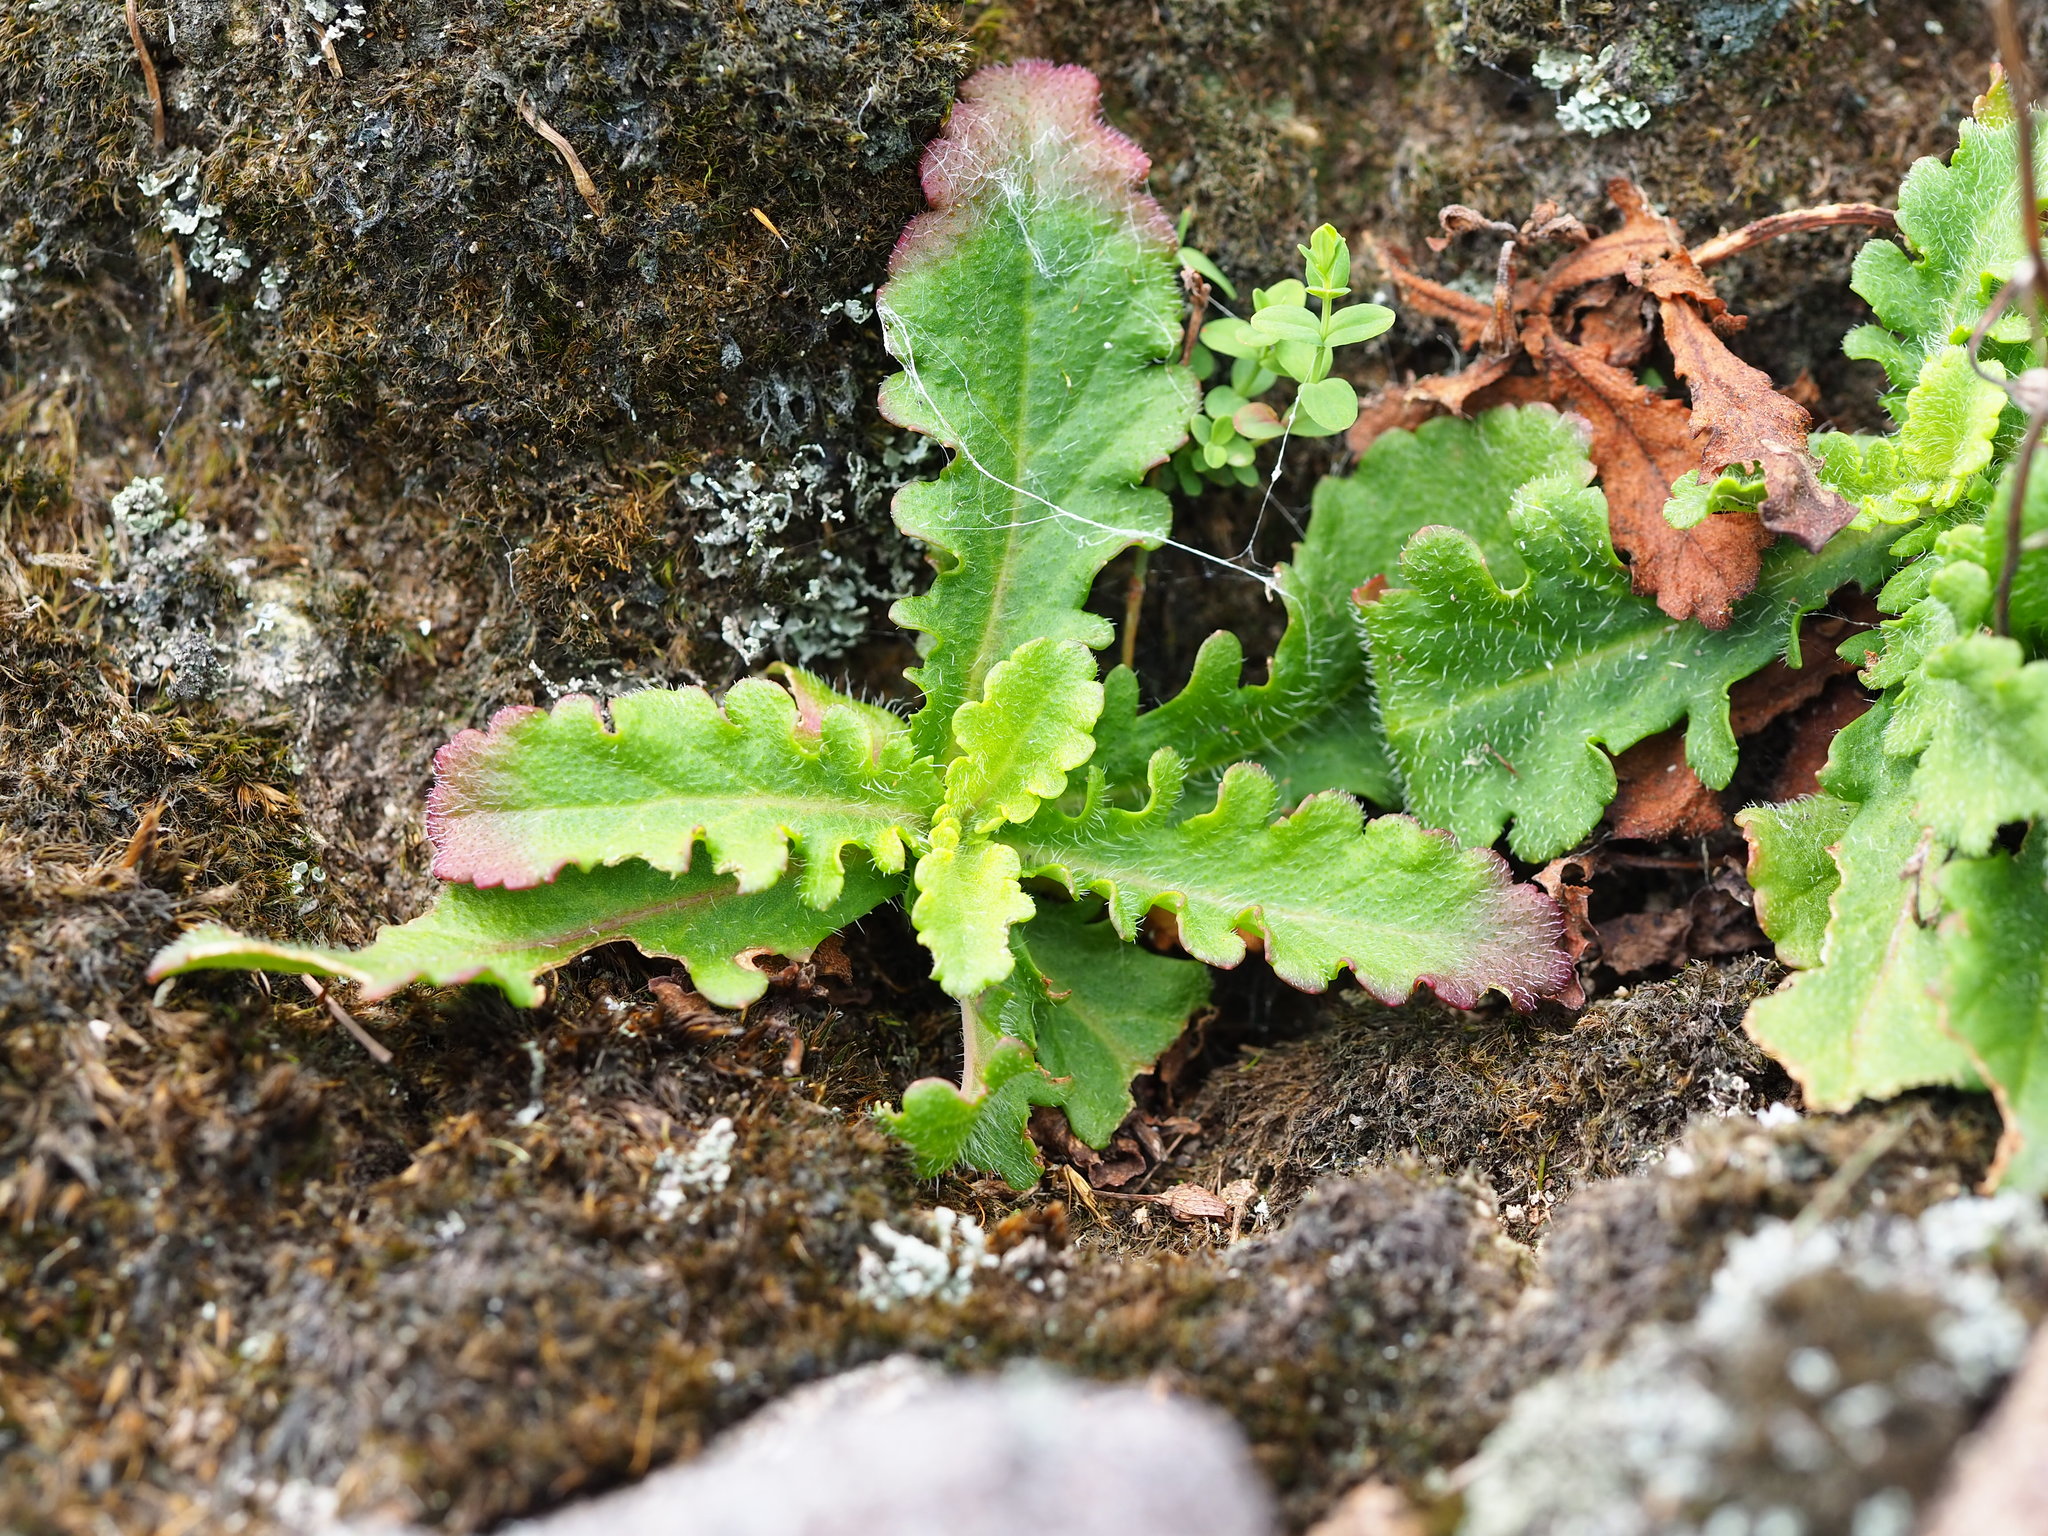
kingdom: Plantae
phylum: Tracheophyta
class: Magnoliopsida
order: Lamiales
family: Mazaceae
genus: Mazus
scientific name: Mazus fauriei
